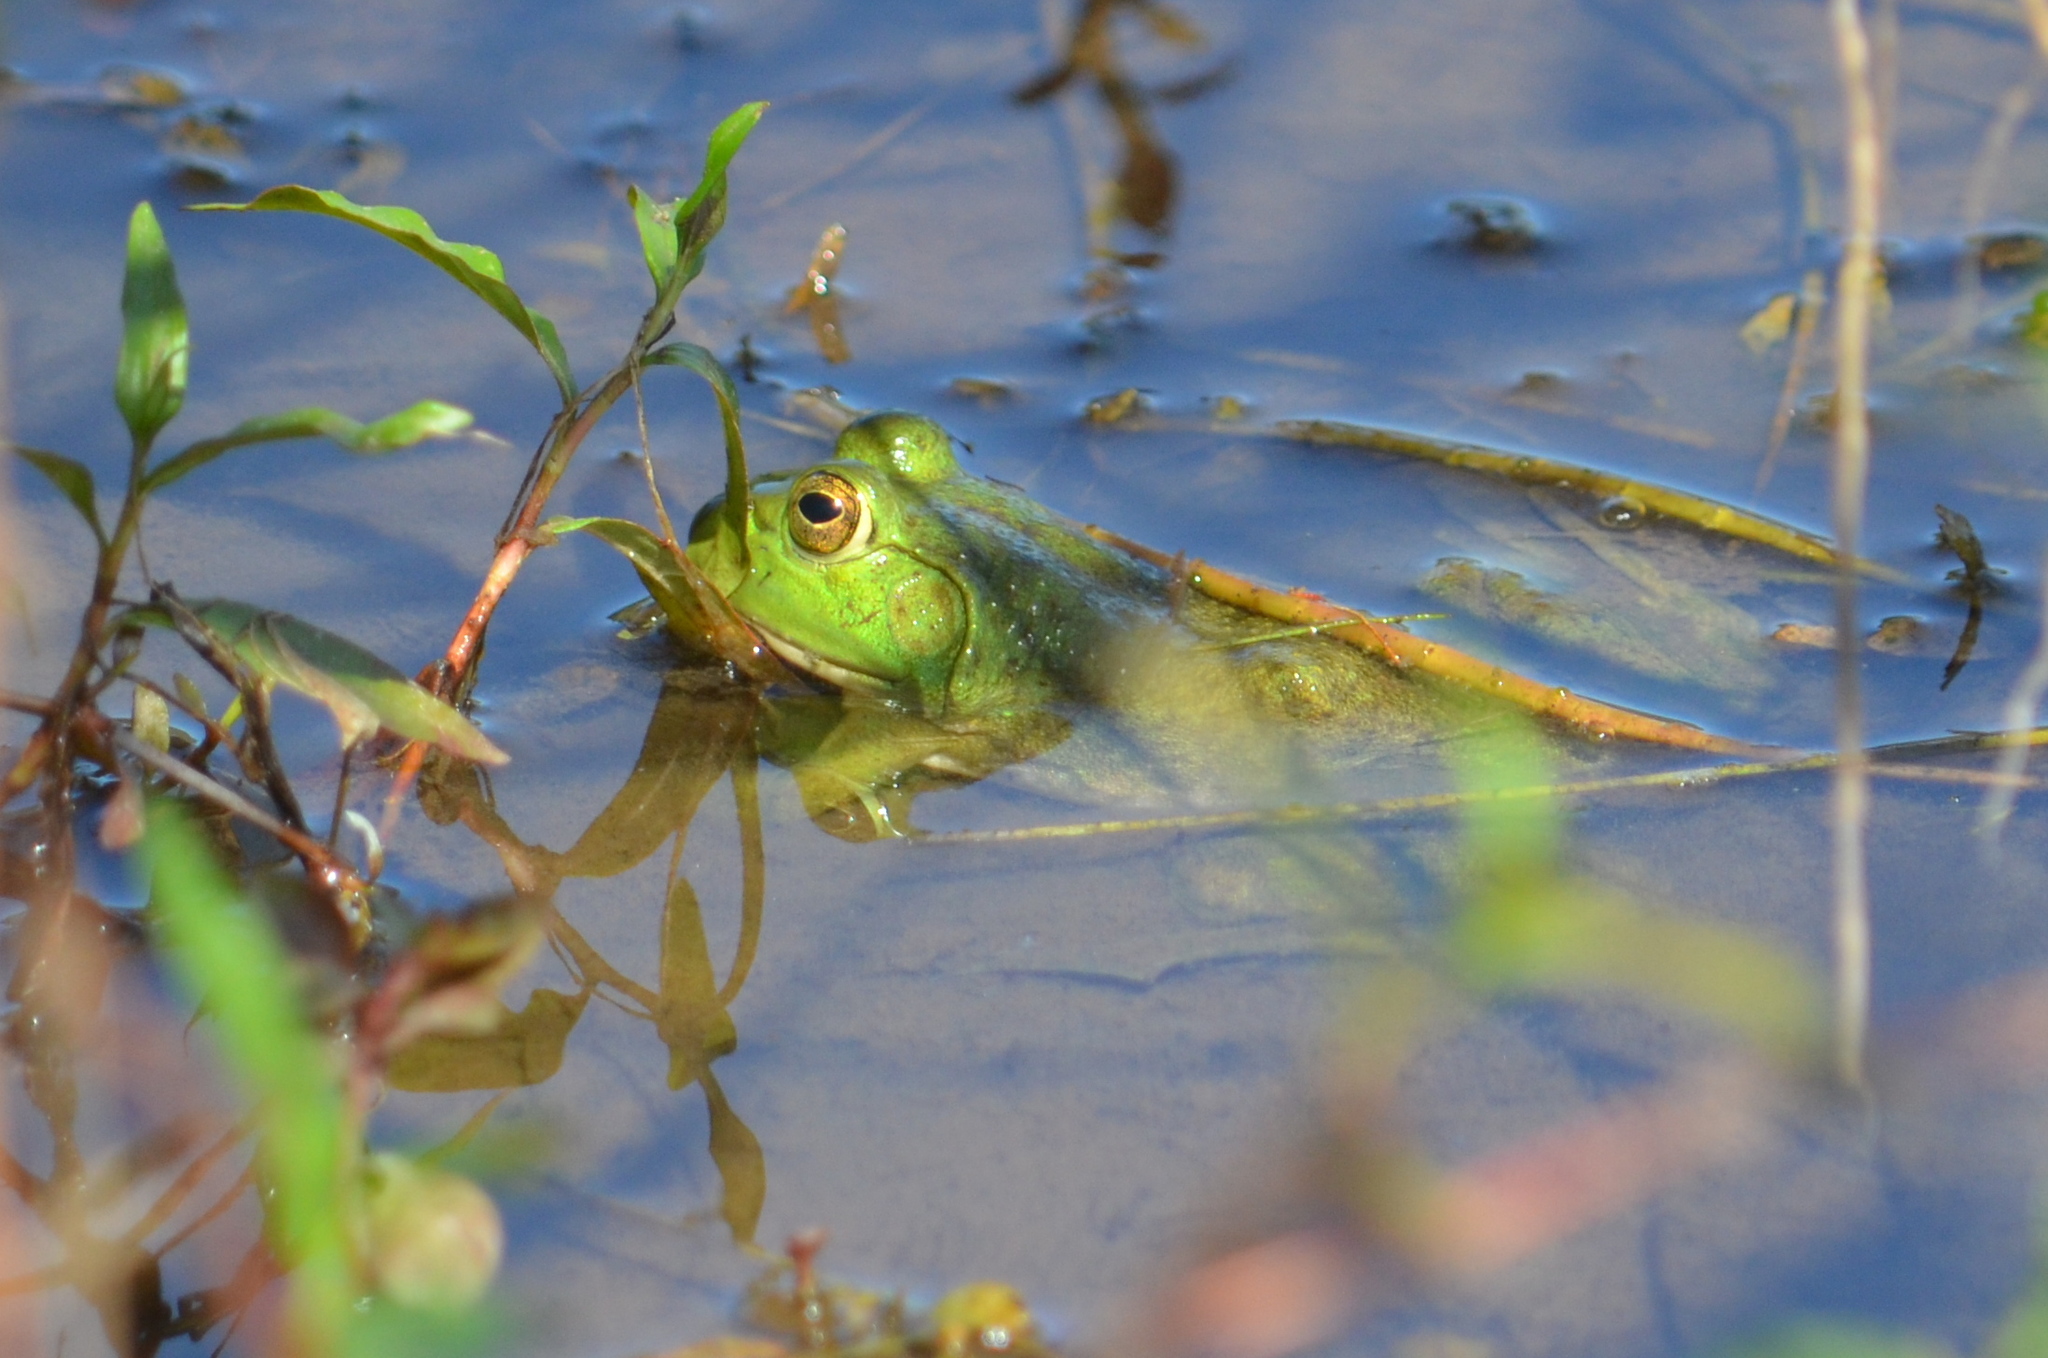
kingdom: Animalia
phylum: Chordata
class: Amphibia
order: Anura
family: Ranidae
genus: Lithobates
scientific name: Lithobates catesbeianus
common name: American bullfrog
